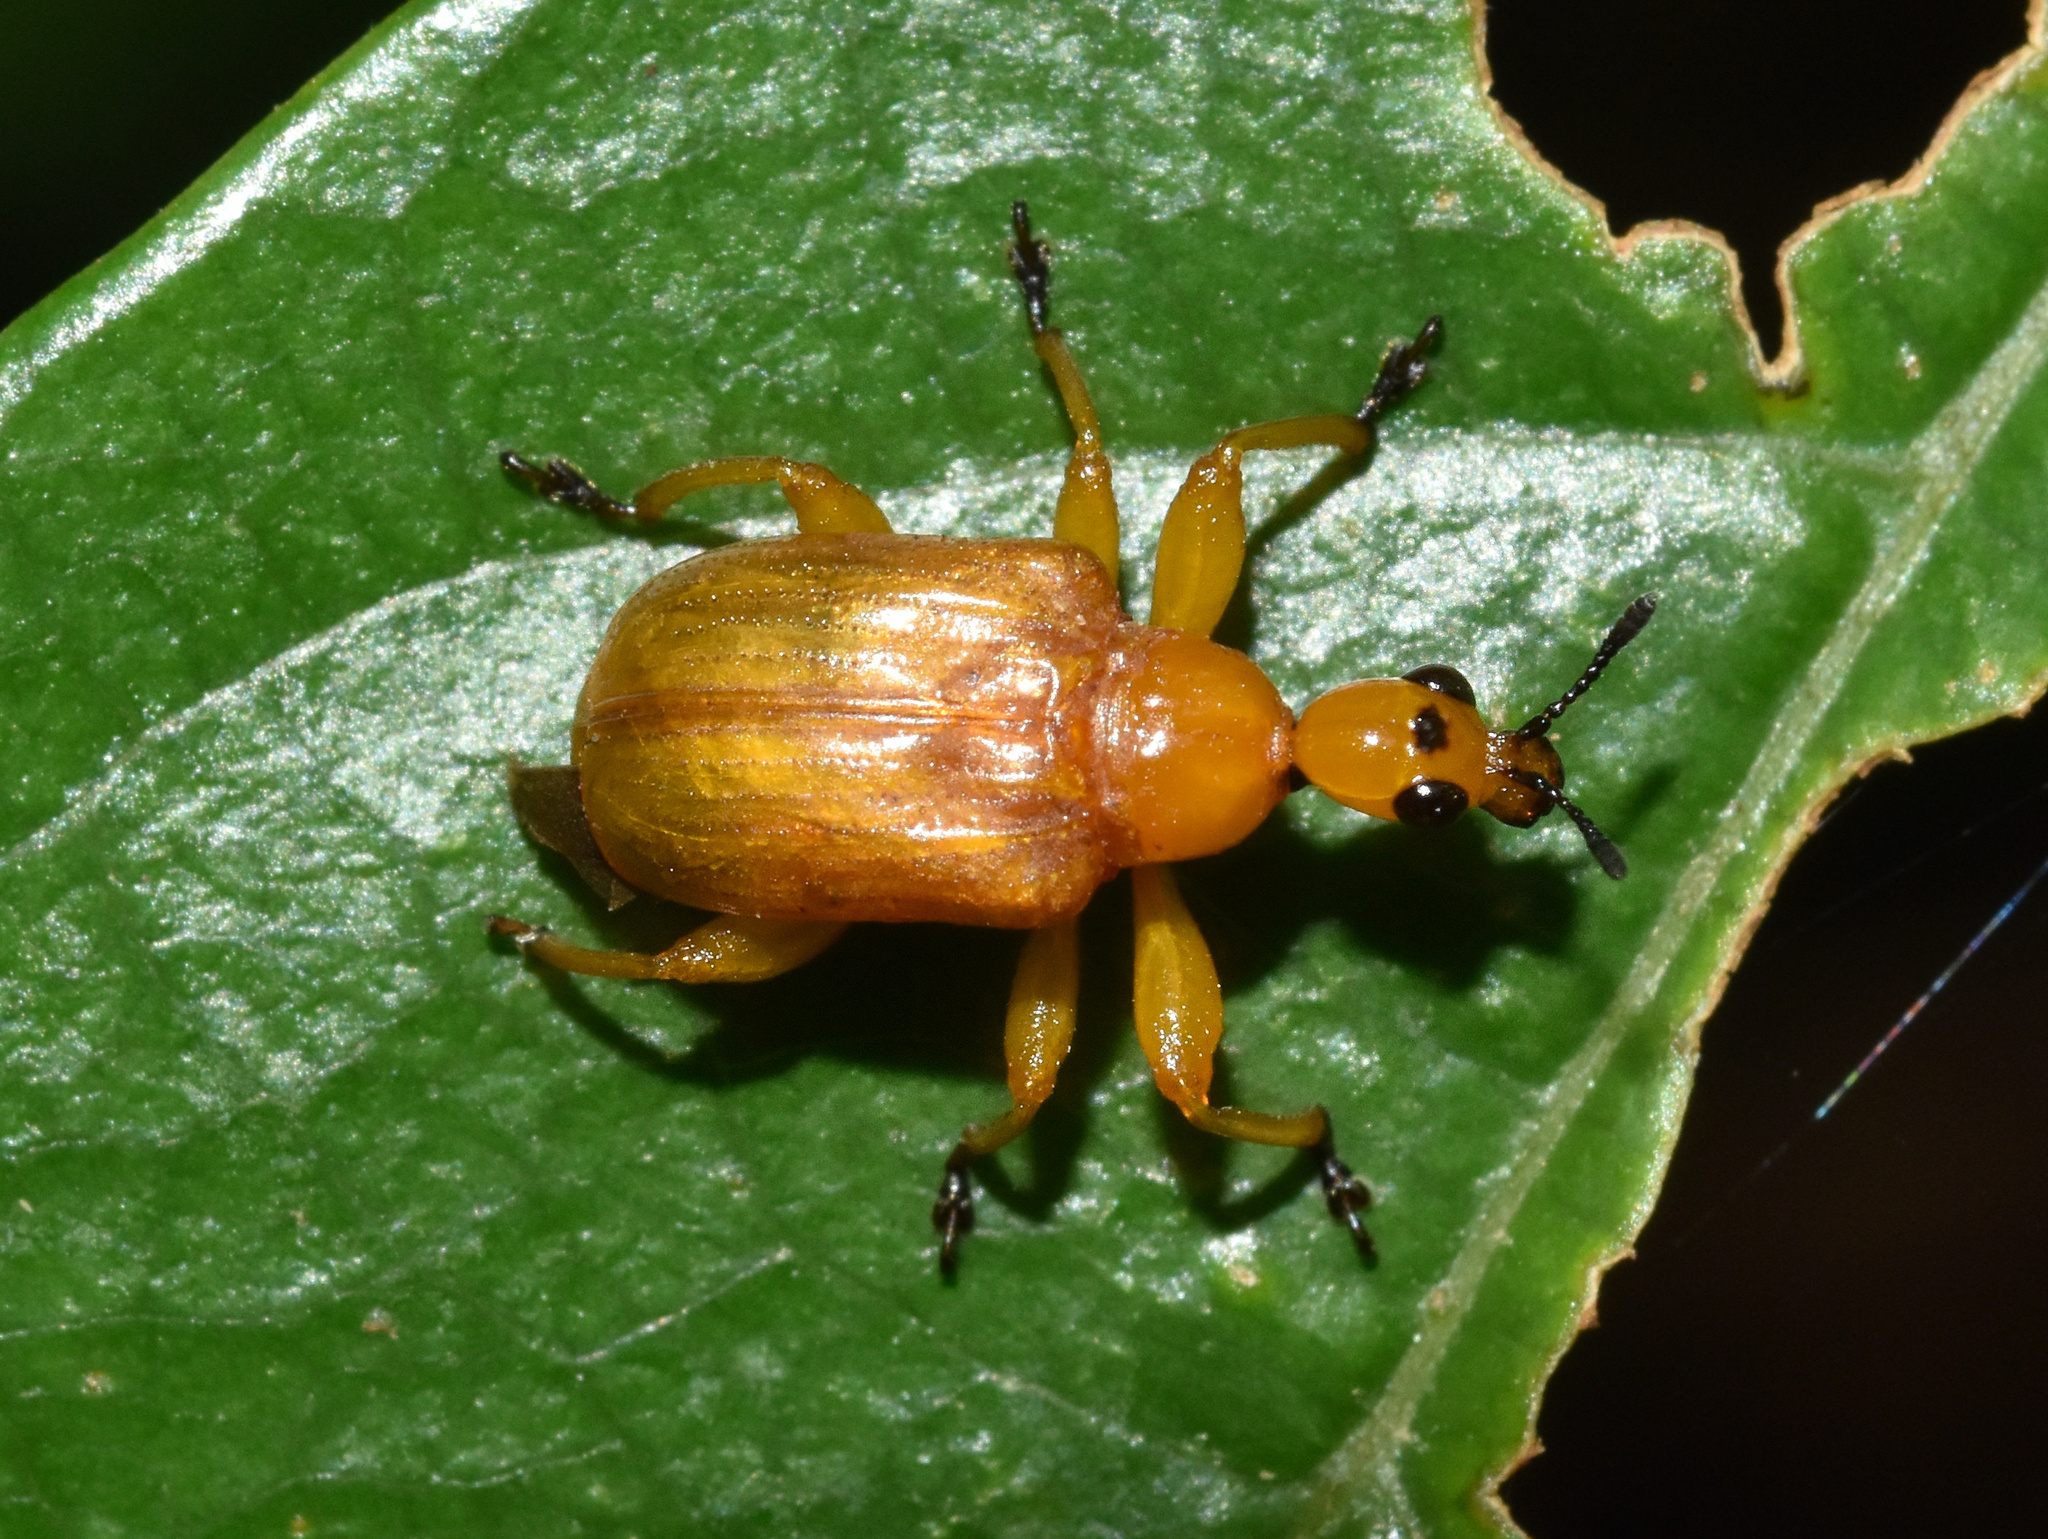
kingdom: Animalia
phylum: Arthropoda
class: Insecta
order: Coleoptera
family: Attelabidae
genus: Paratomapoderus
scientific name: Paratomapoderus maculifrons
